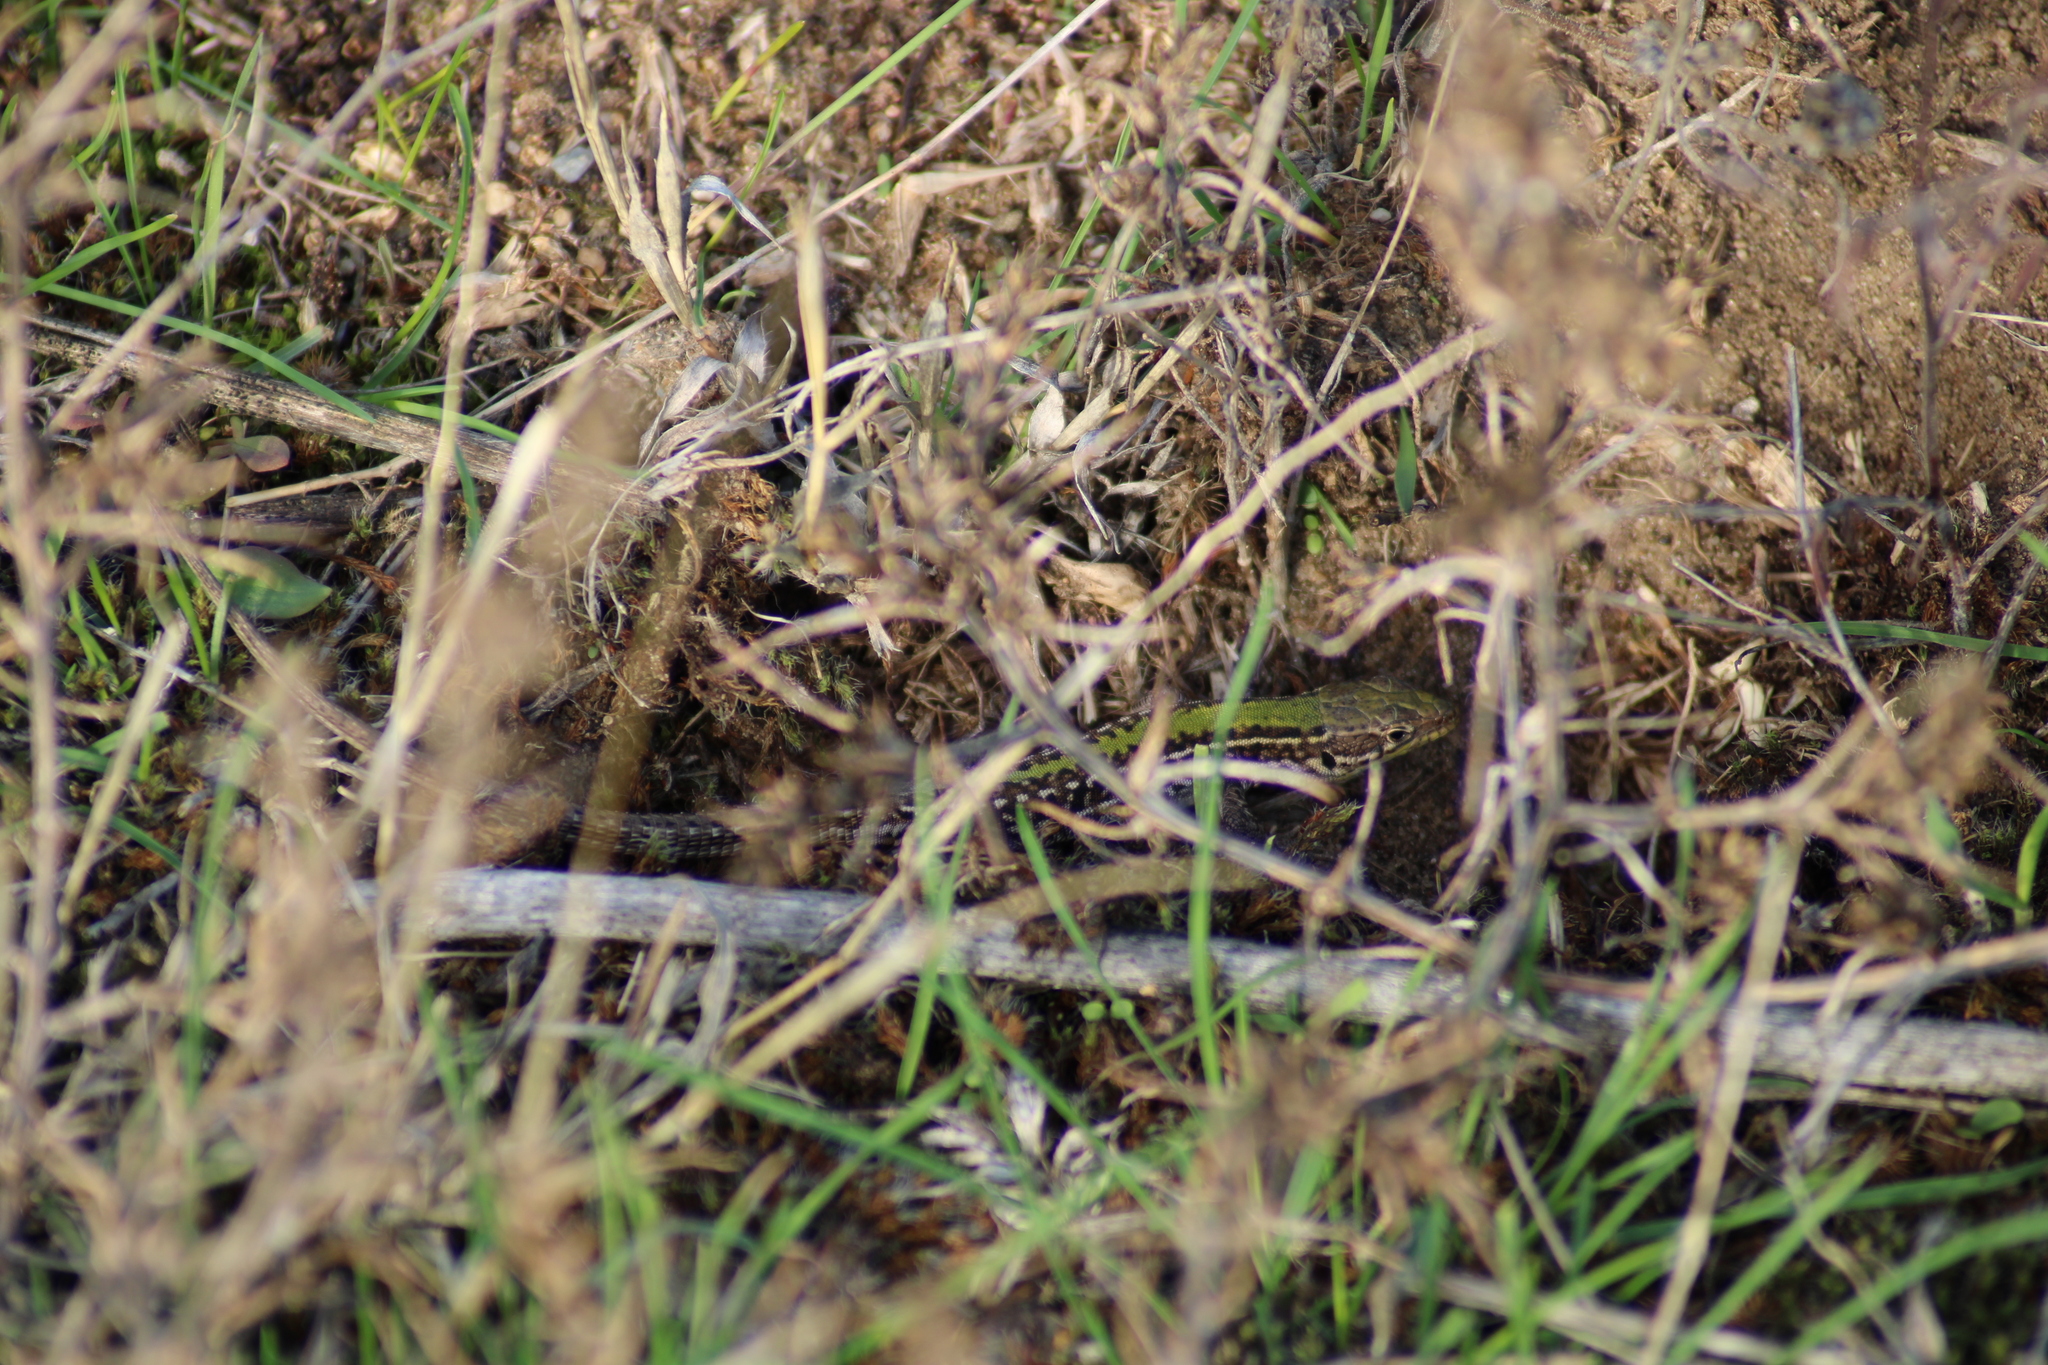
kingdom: Animalia
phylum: Chordata
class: Squamata
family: Lacertidae
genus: Podarcis
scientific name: Podarcis tauricus
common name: Balkan wall lizard
